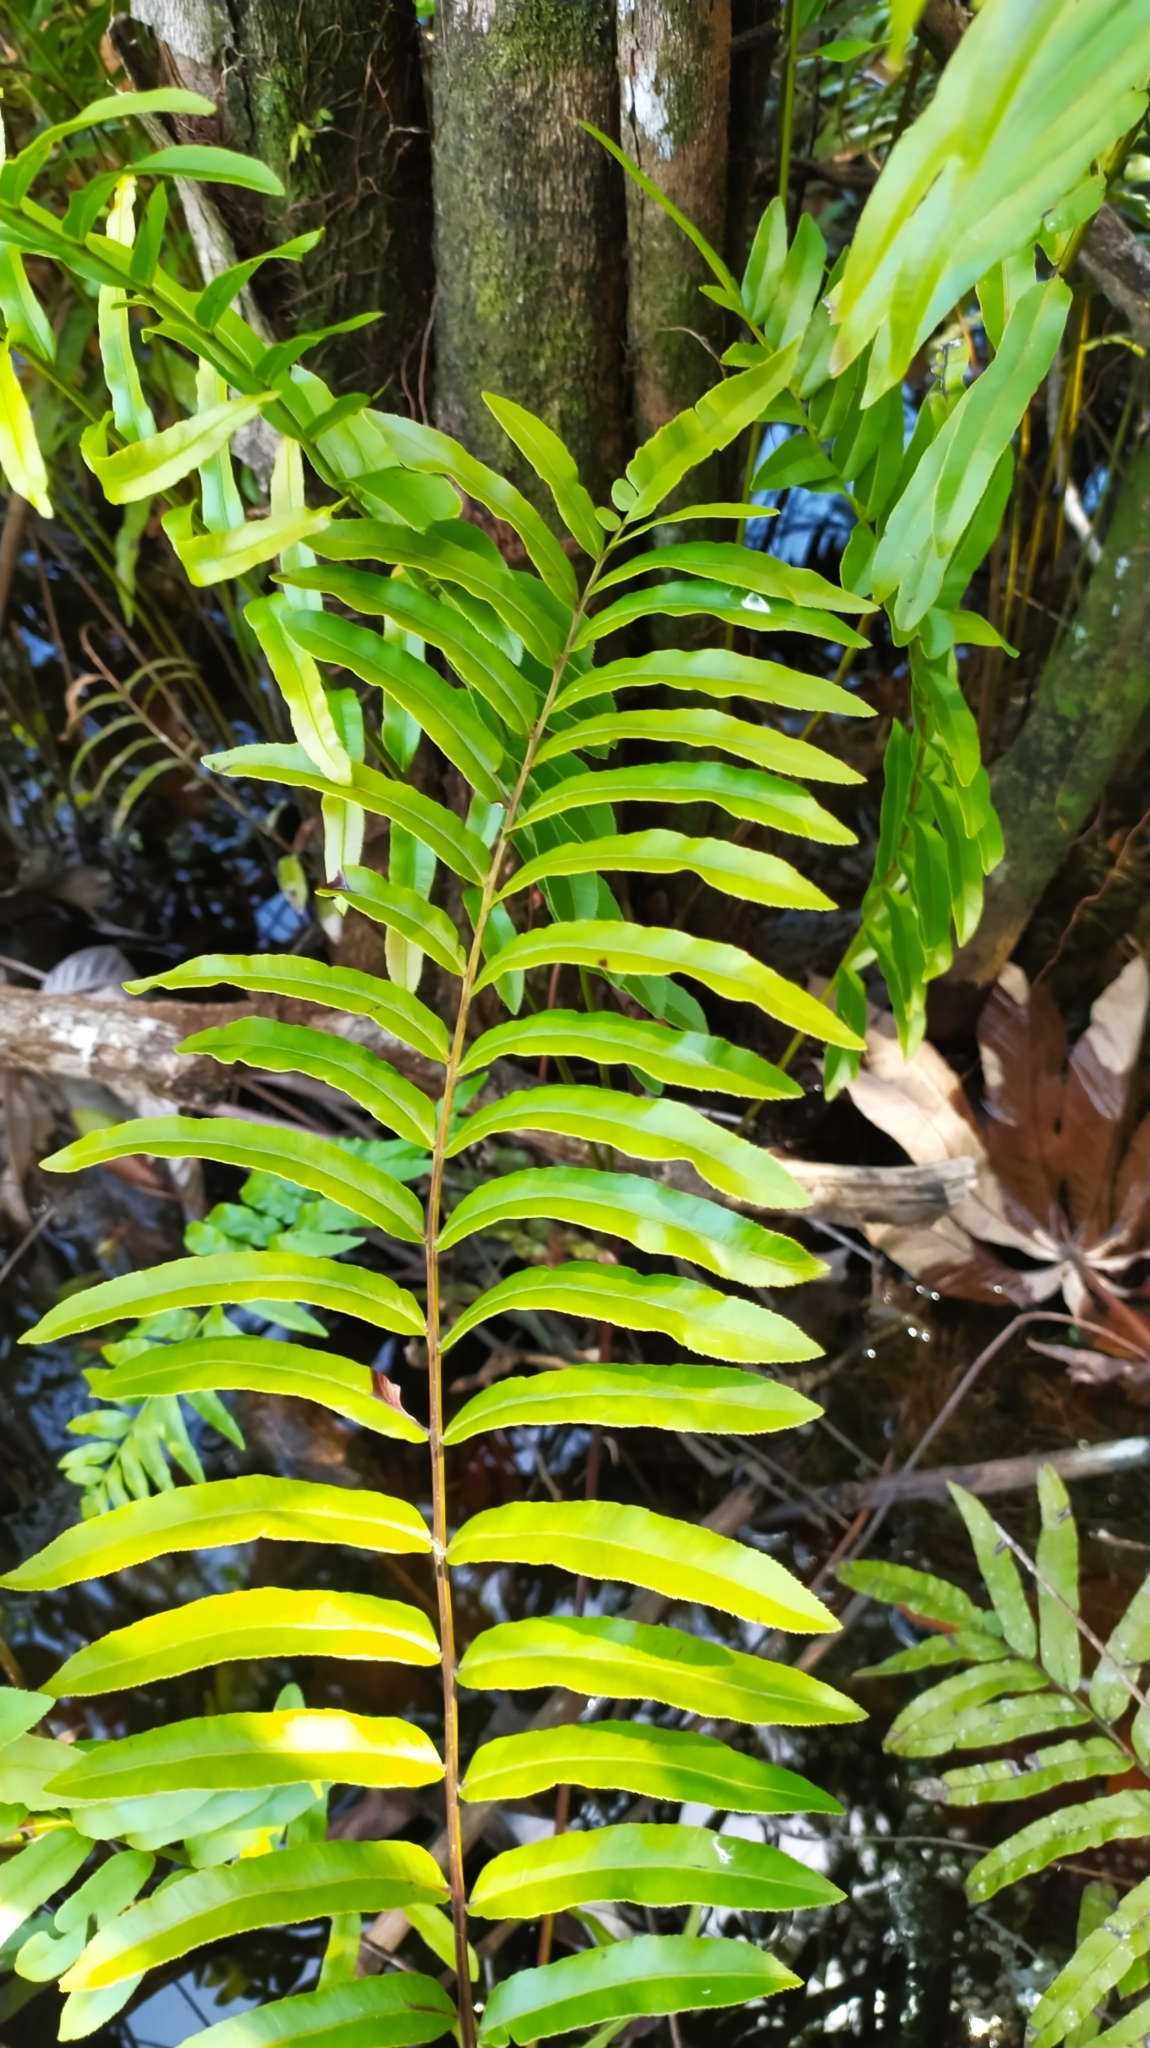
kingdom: Plantae
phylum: Tracheophyta
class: Polypodiopsida
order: Polypodiales
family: Blechnaceae
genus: Telmatoblechnum
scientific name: Telmatoblechnum serrulatum
